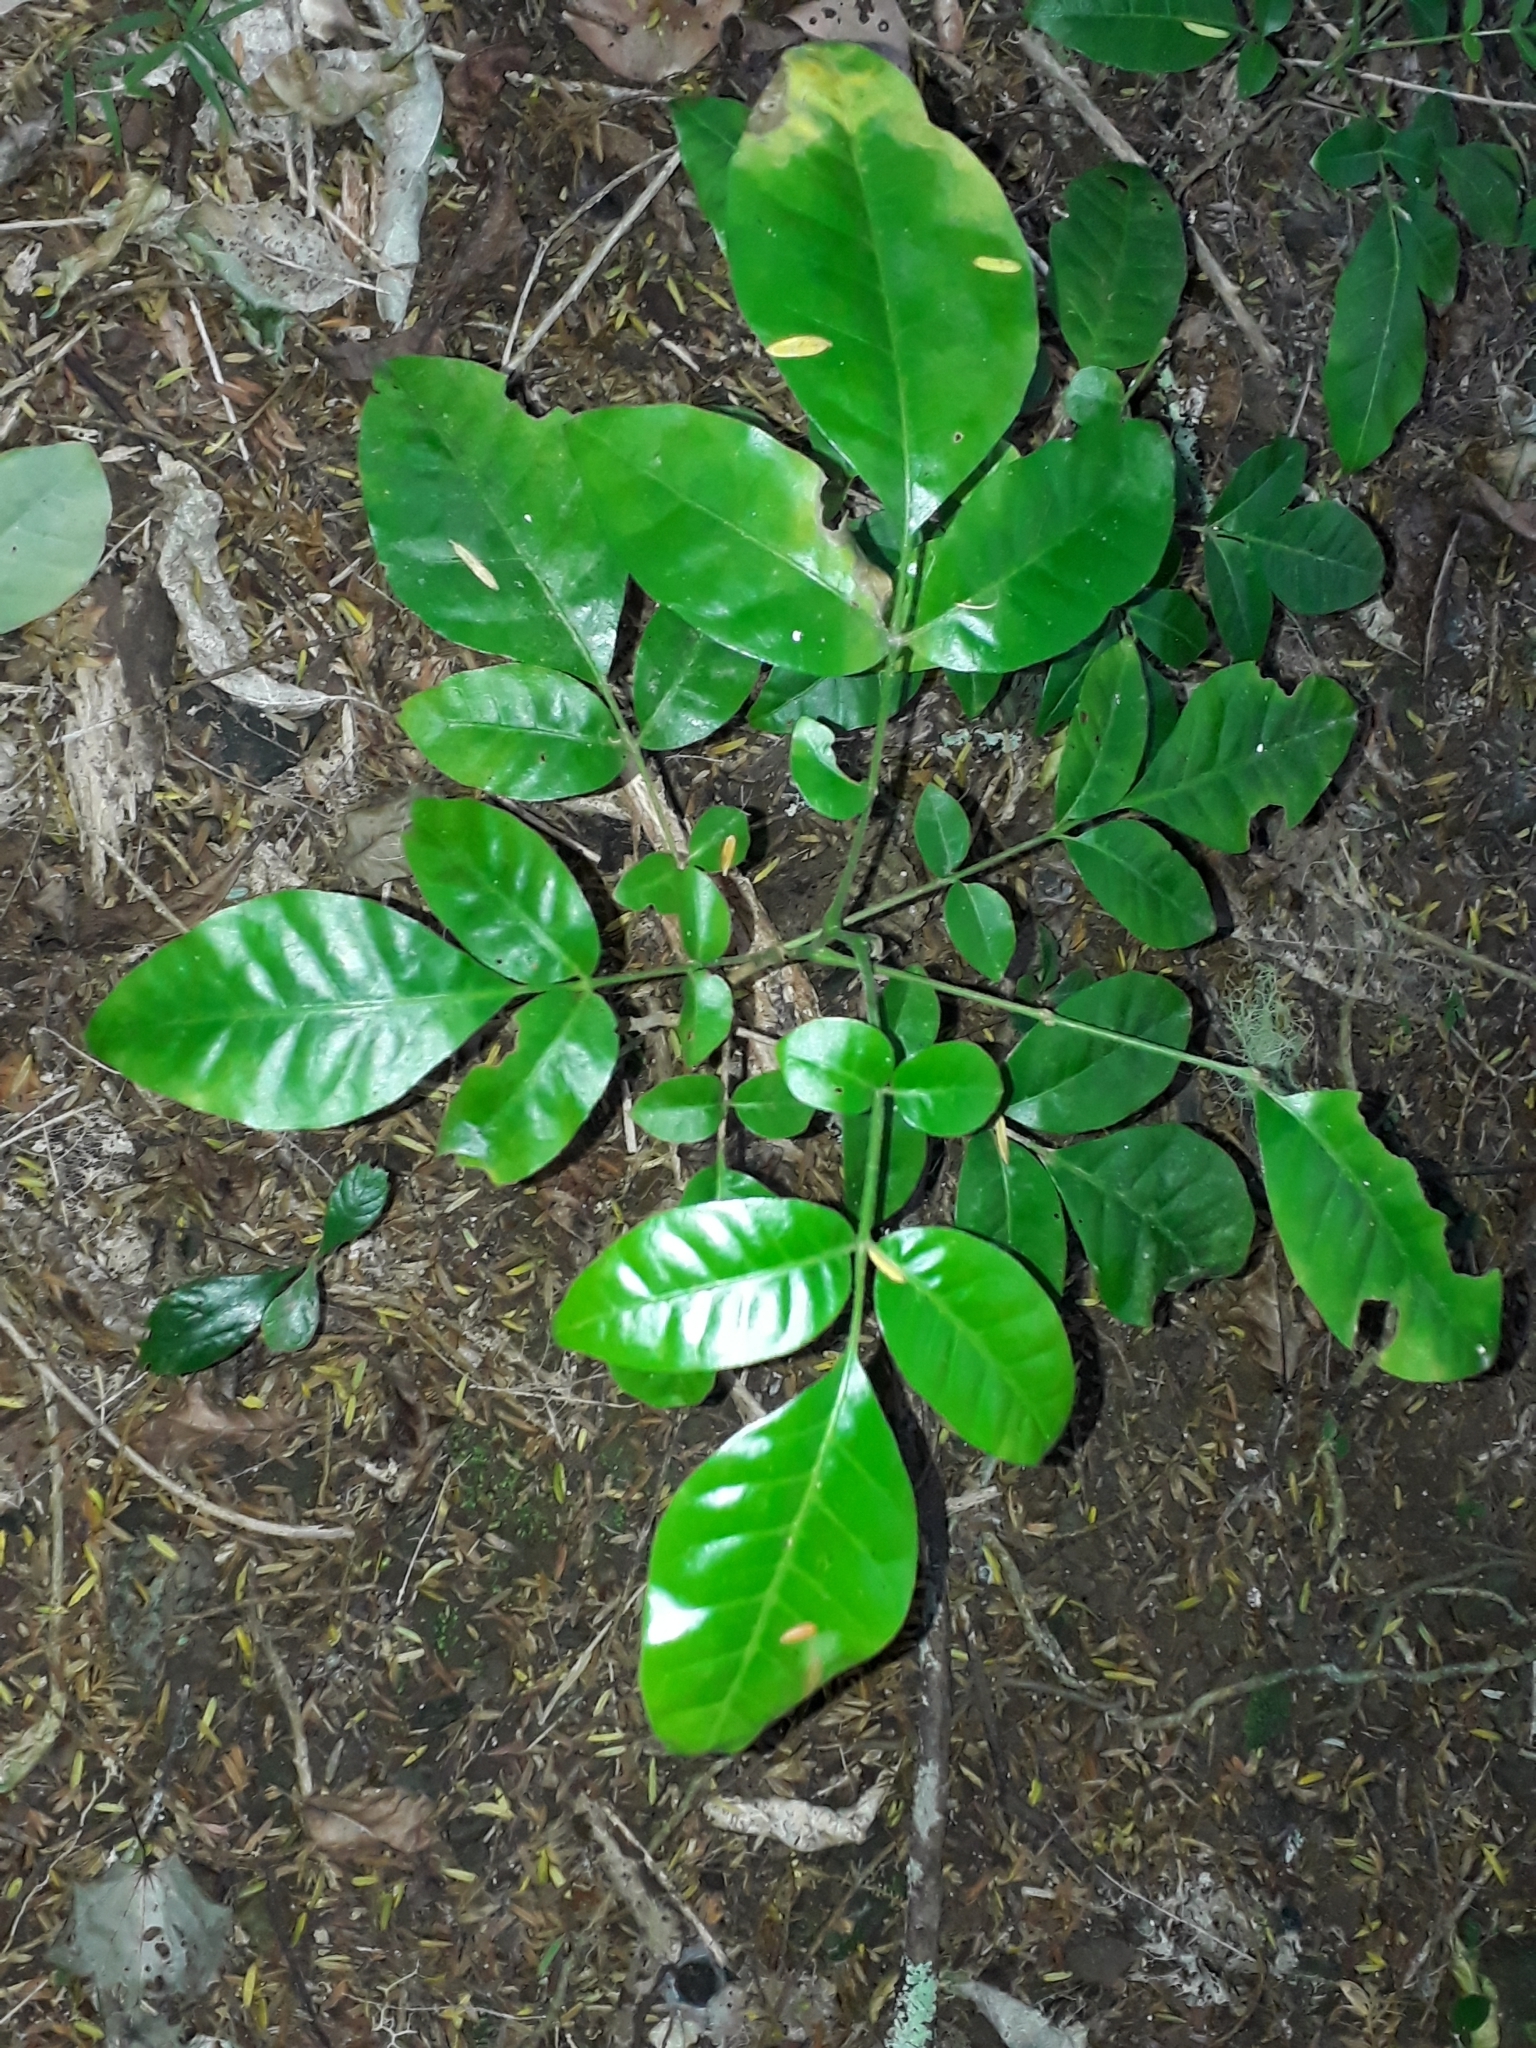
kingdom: Plantae
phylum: Tracheophyta
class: Magnoliopsida
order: Sapindales
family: Meliaceae
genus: Didymocheton
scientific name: Didymocheton spectabilis
